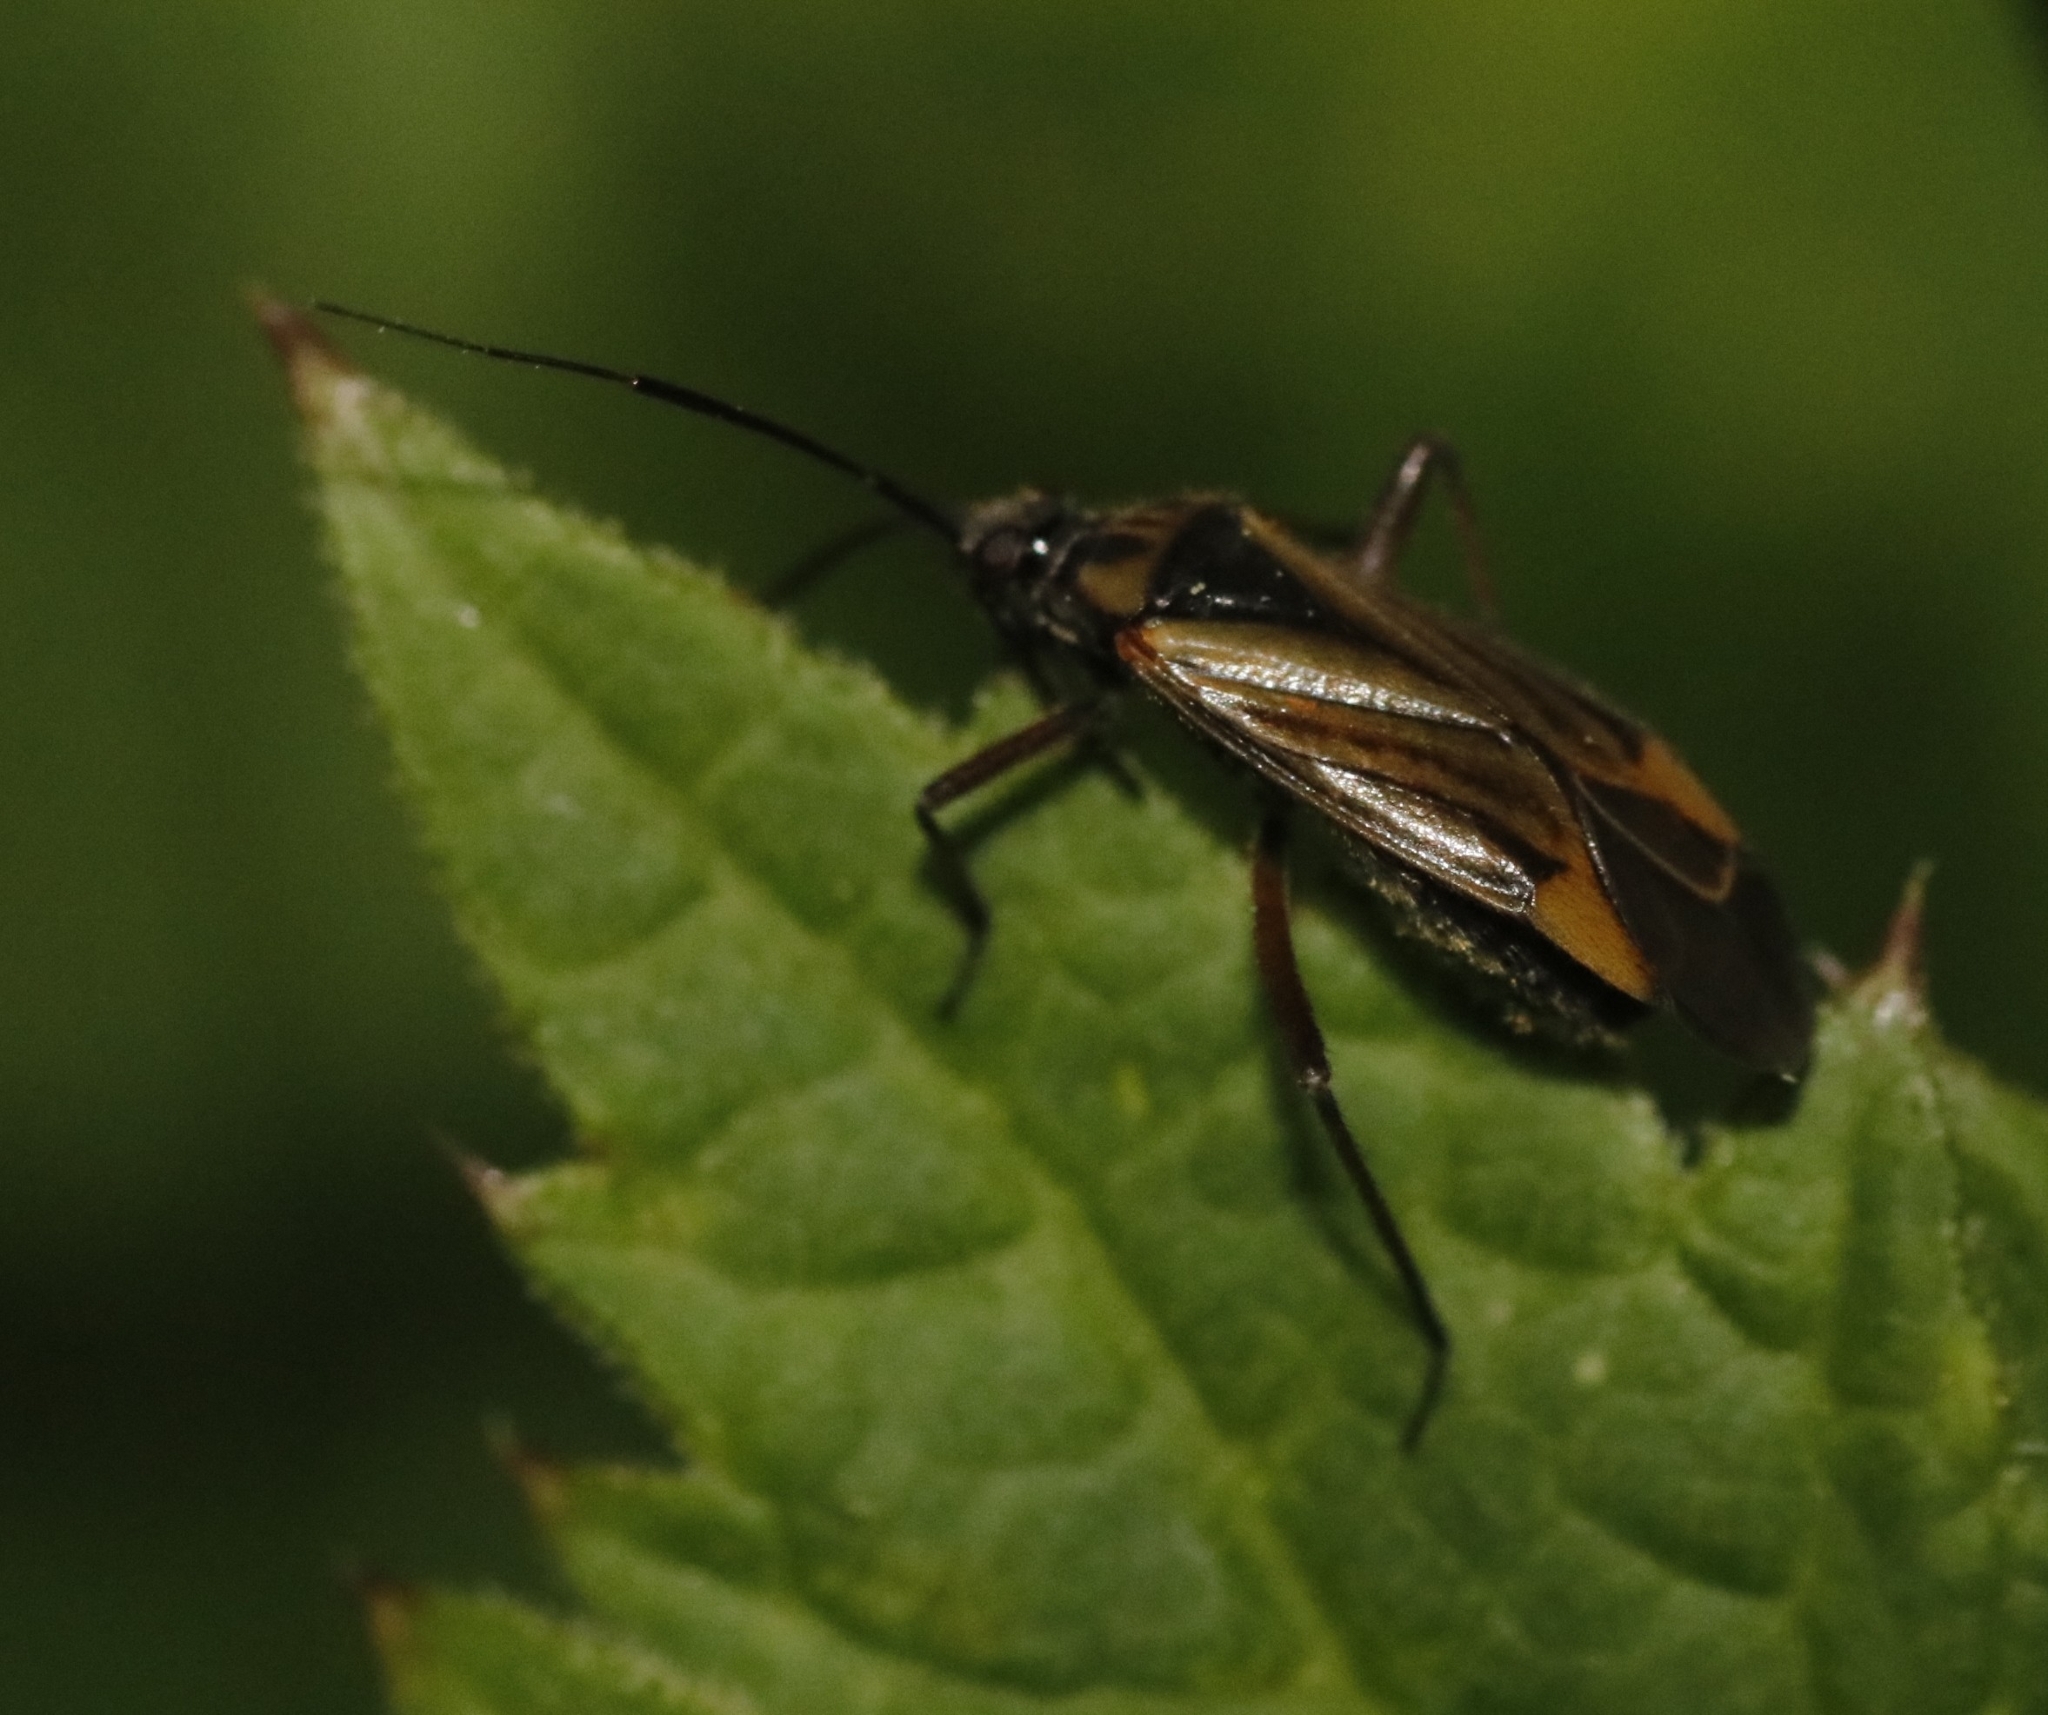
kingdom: Animalia
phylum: Arthropoda
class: Insecta
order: Hemiptera
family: Miridae
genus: Horwathia
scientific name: Horwathia lineolata
